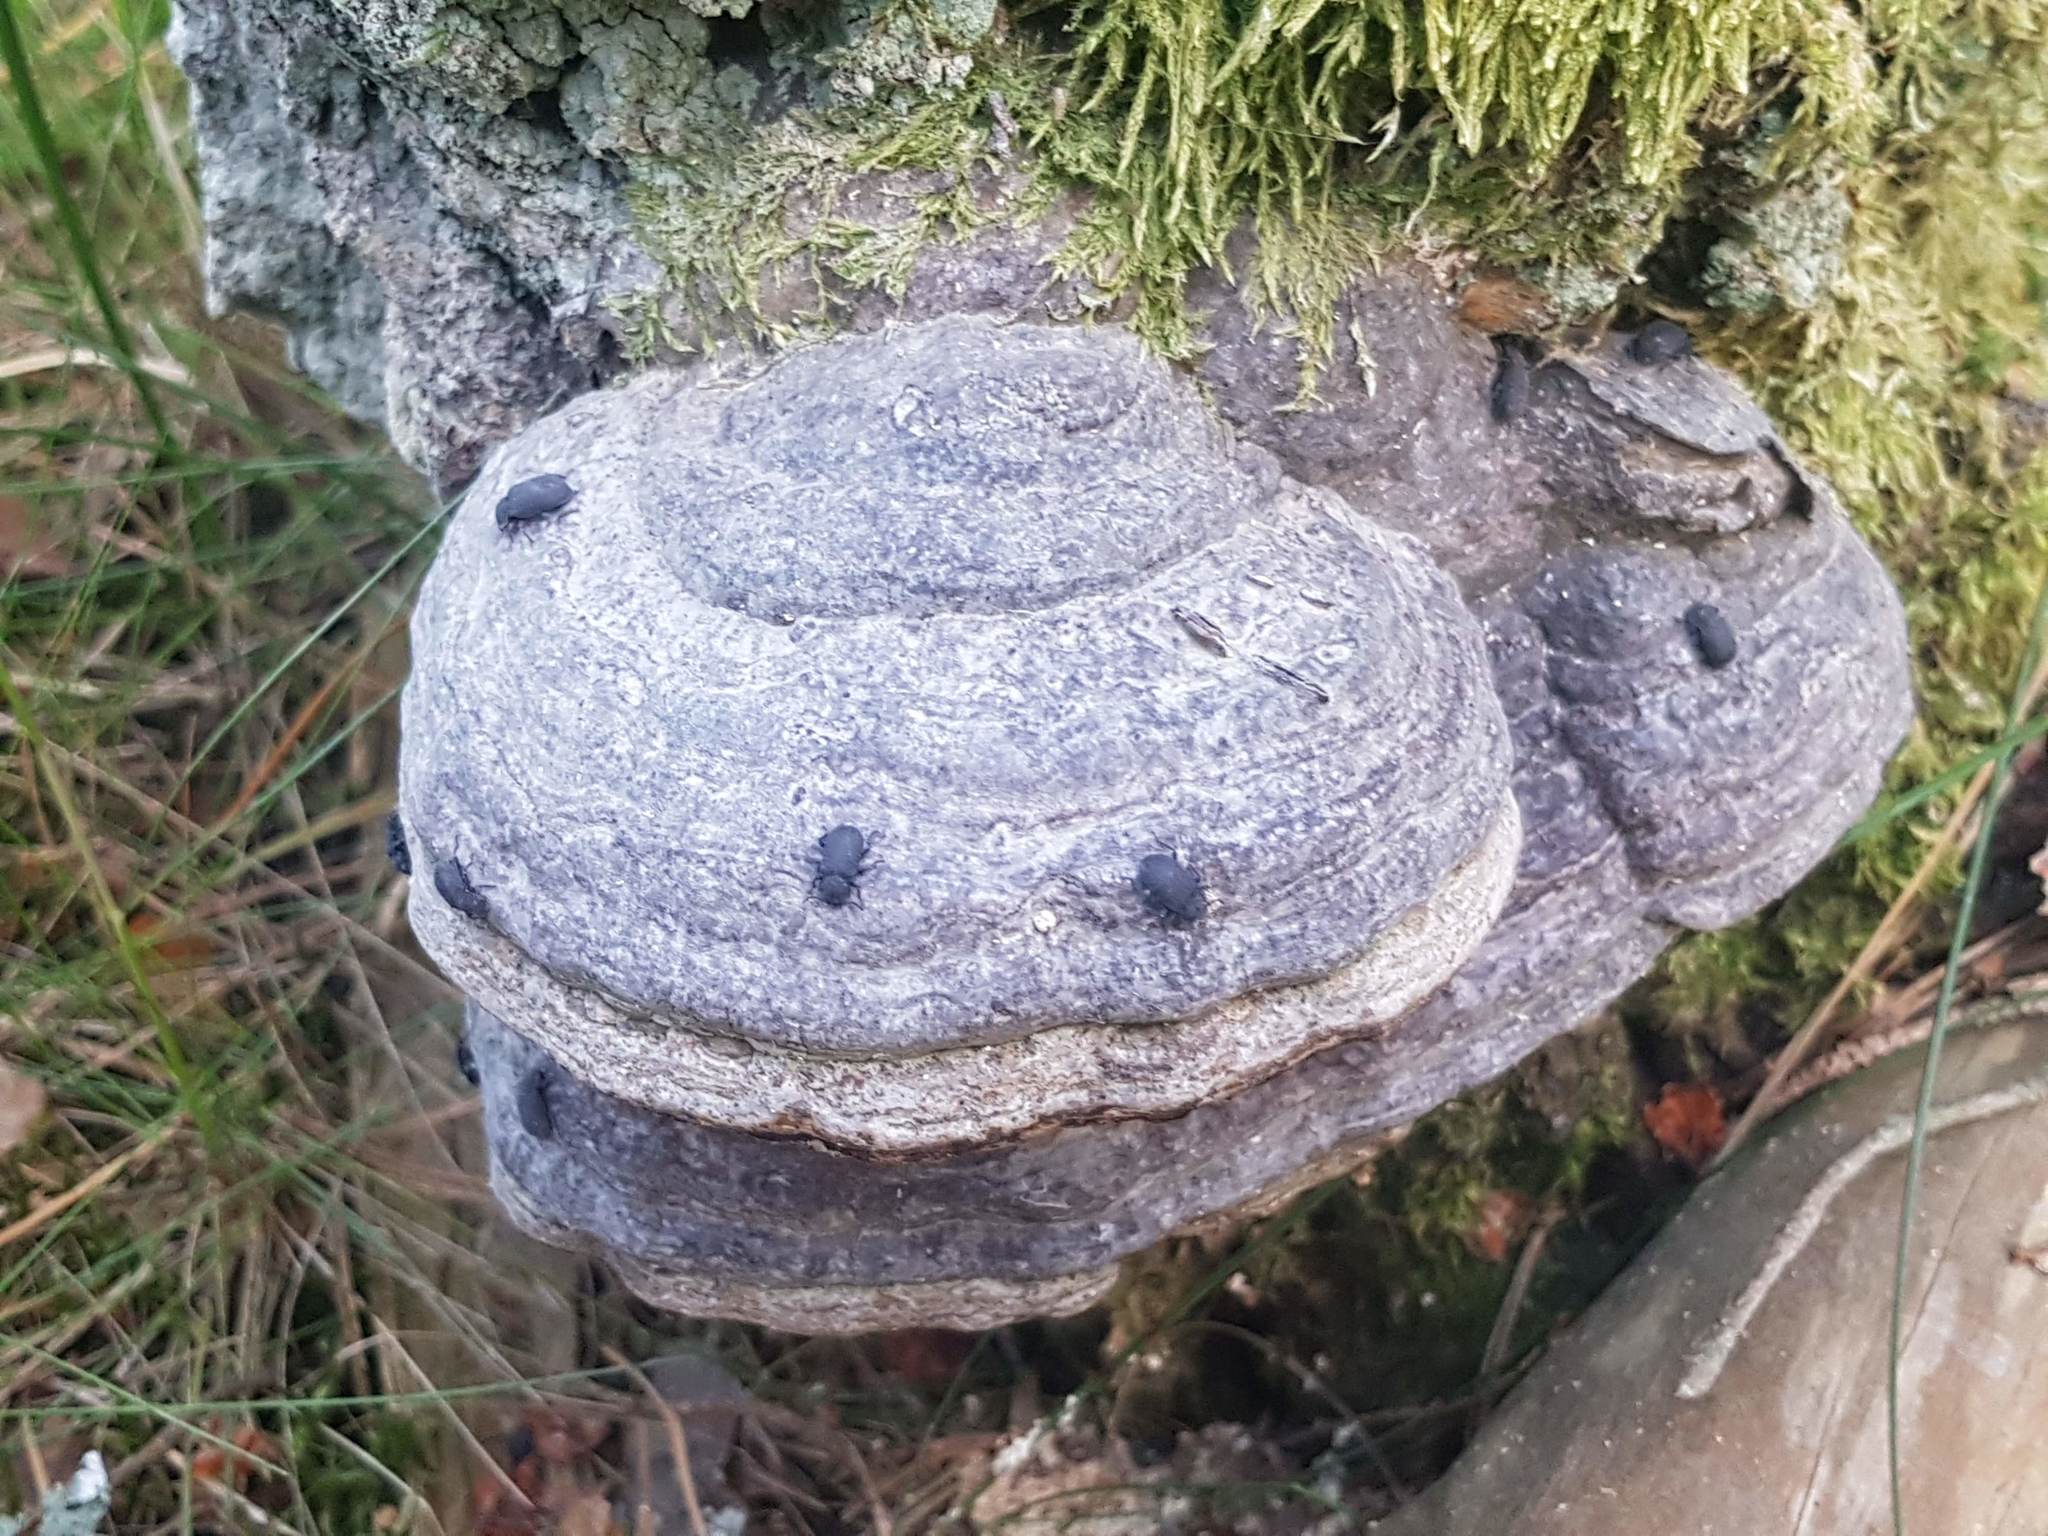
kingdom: Animalia
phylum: Arthropoda
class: Insecta
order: Coleoptera
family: Tenebrionidae
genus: Bolitophagus
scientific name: Bolitophagus reticulatus
